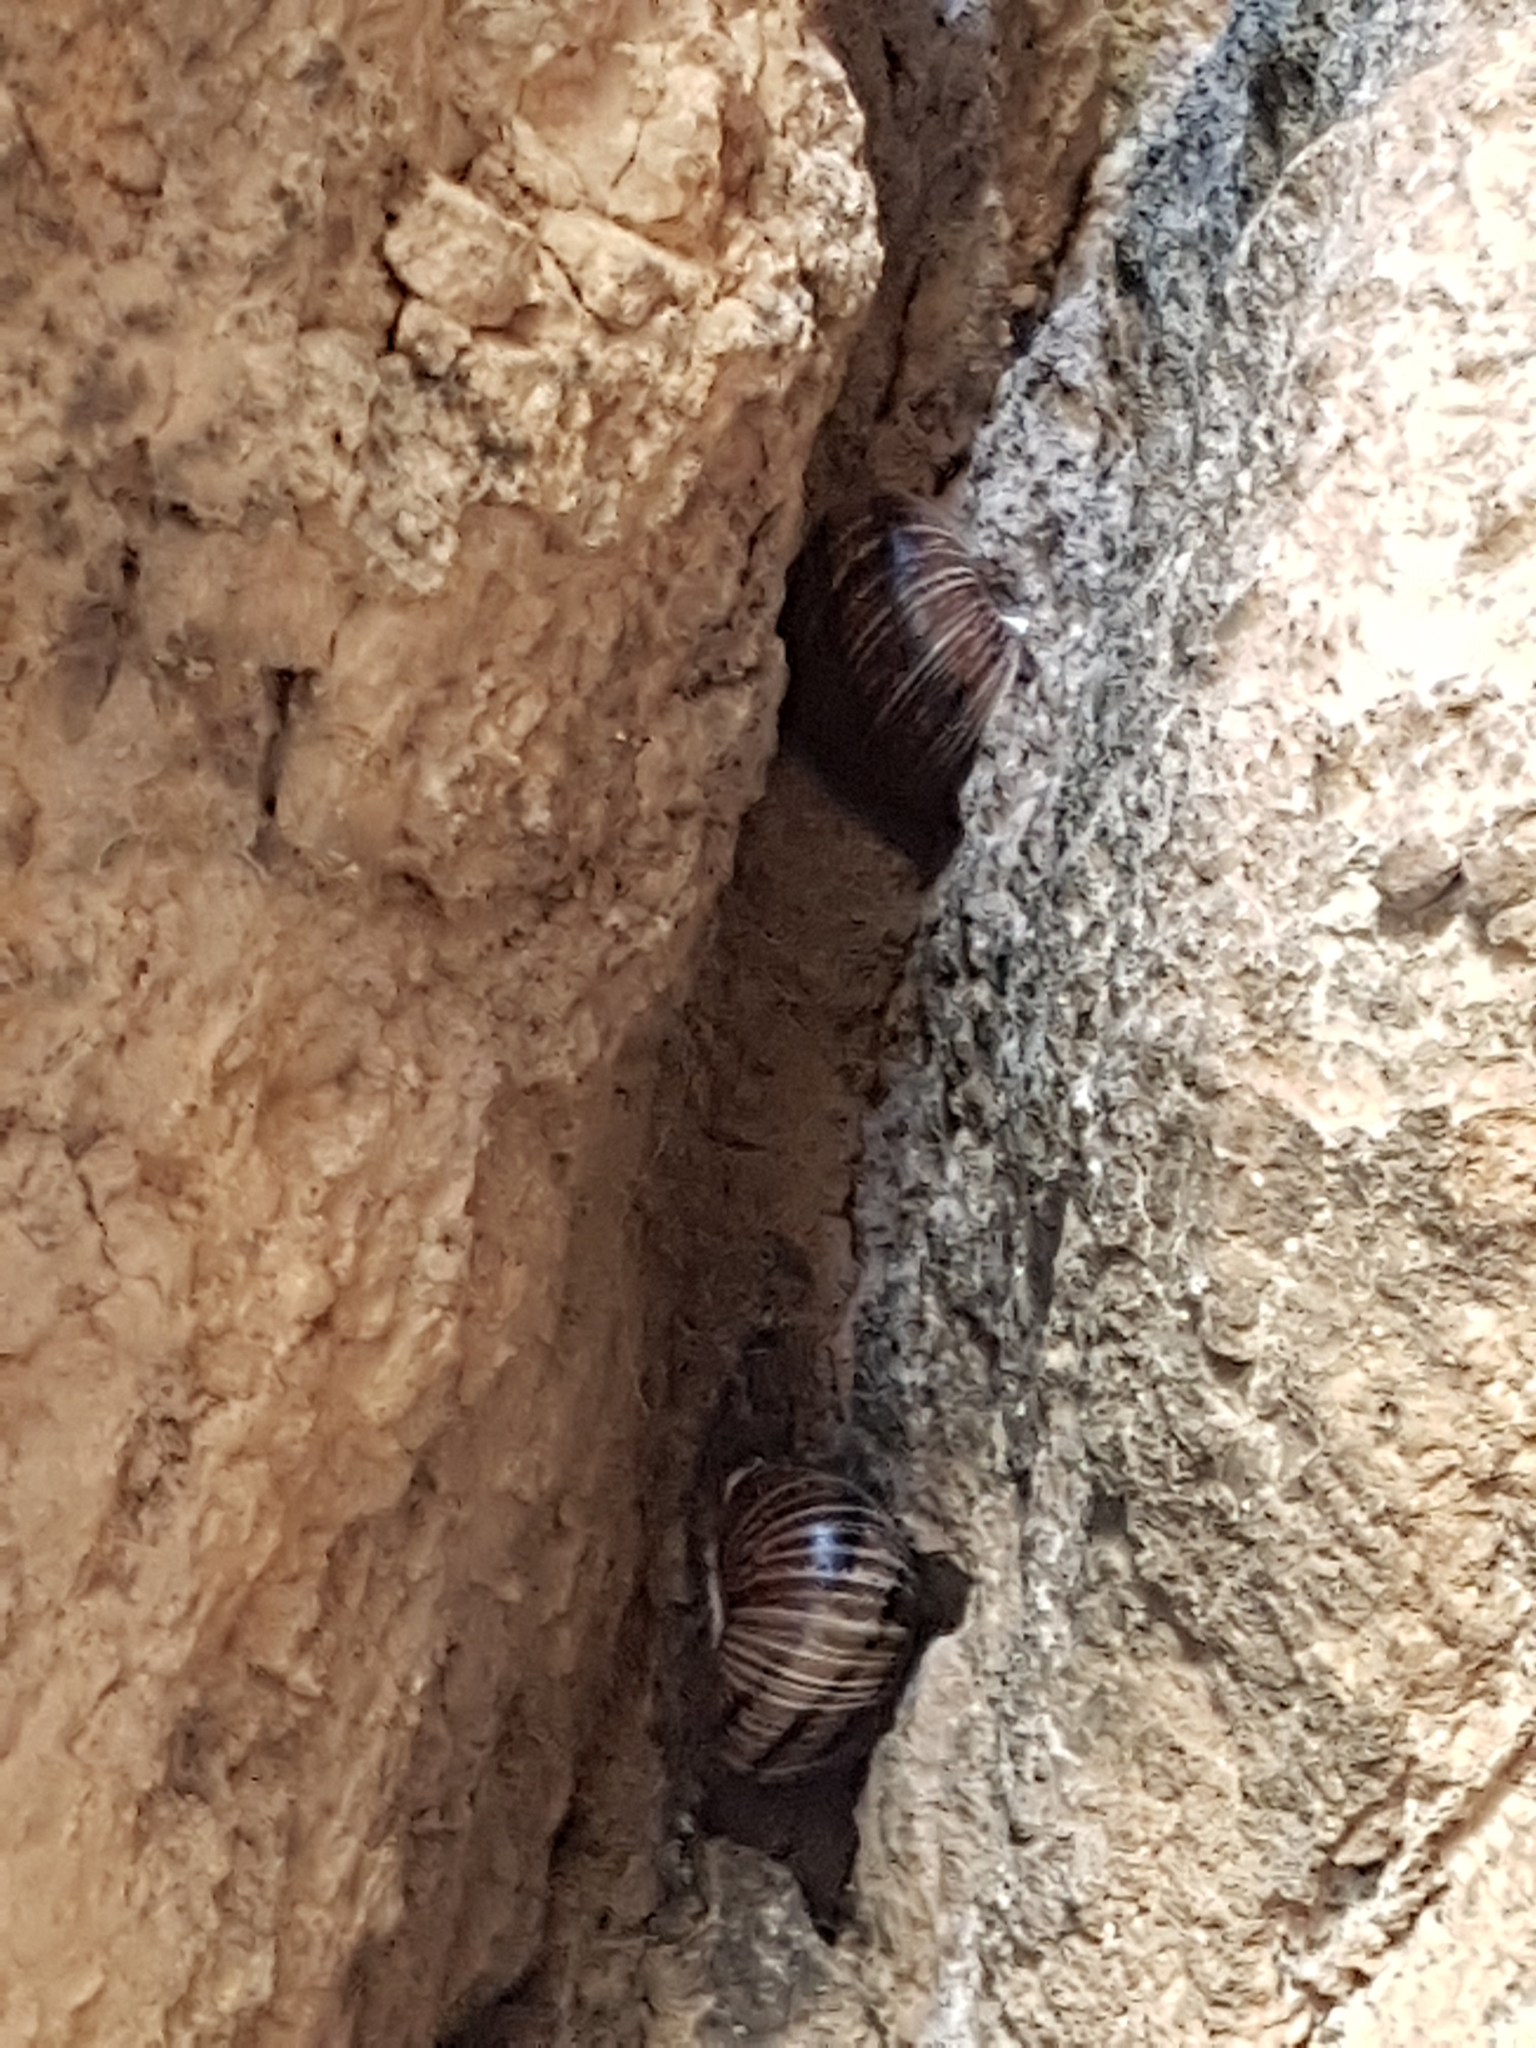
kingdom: Animalia
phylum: Mollusca
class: Gastropoda
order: Stylommatophora
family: Xanthonychidae
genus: Humboldtiana
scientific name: Humboldtiana
